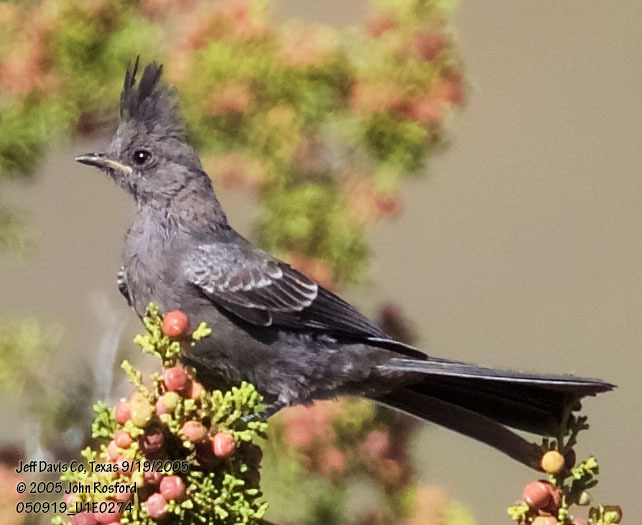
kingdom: Animalia
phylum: Chordata
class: Aves
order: Passeriformes
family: Ptilogonatidae
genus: Phainopepla
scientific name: Phainopepla nitens
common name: Phainopepla
